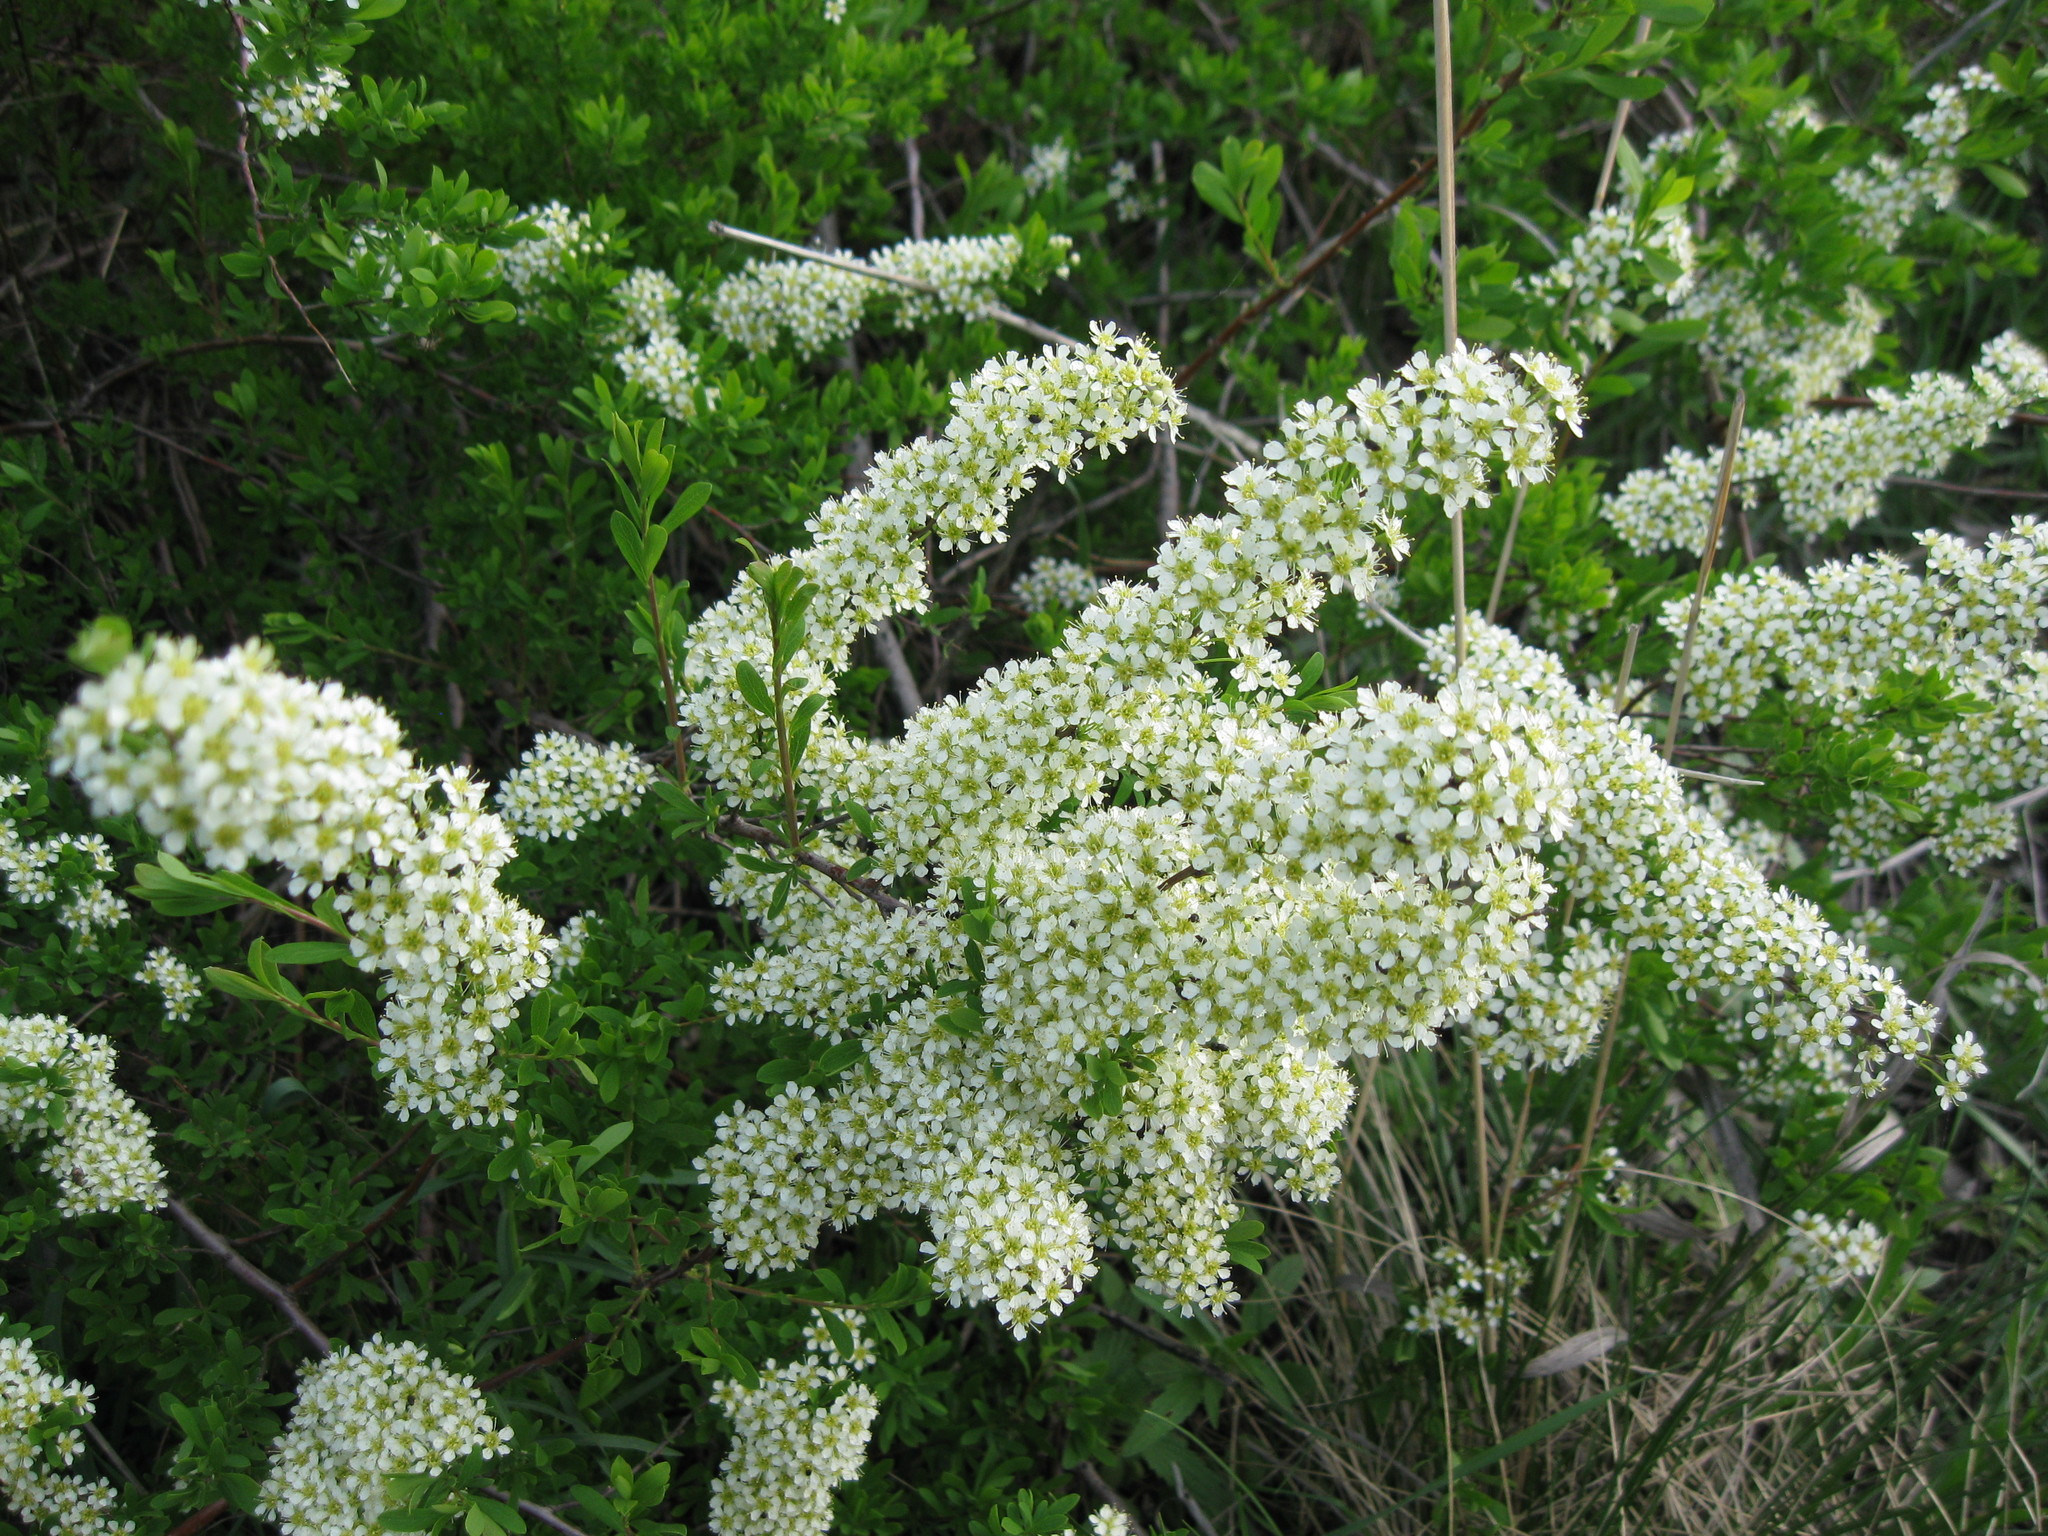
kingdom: Plantae
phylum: Tracheophyta
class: Magnoliopsida
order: Rosales
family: Rosaceae
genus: Spiraea
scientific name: Spiraea hypericifolia
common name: Iberian spirea
